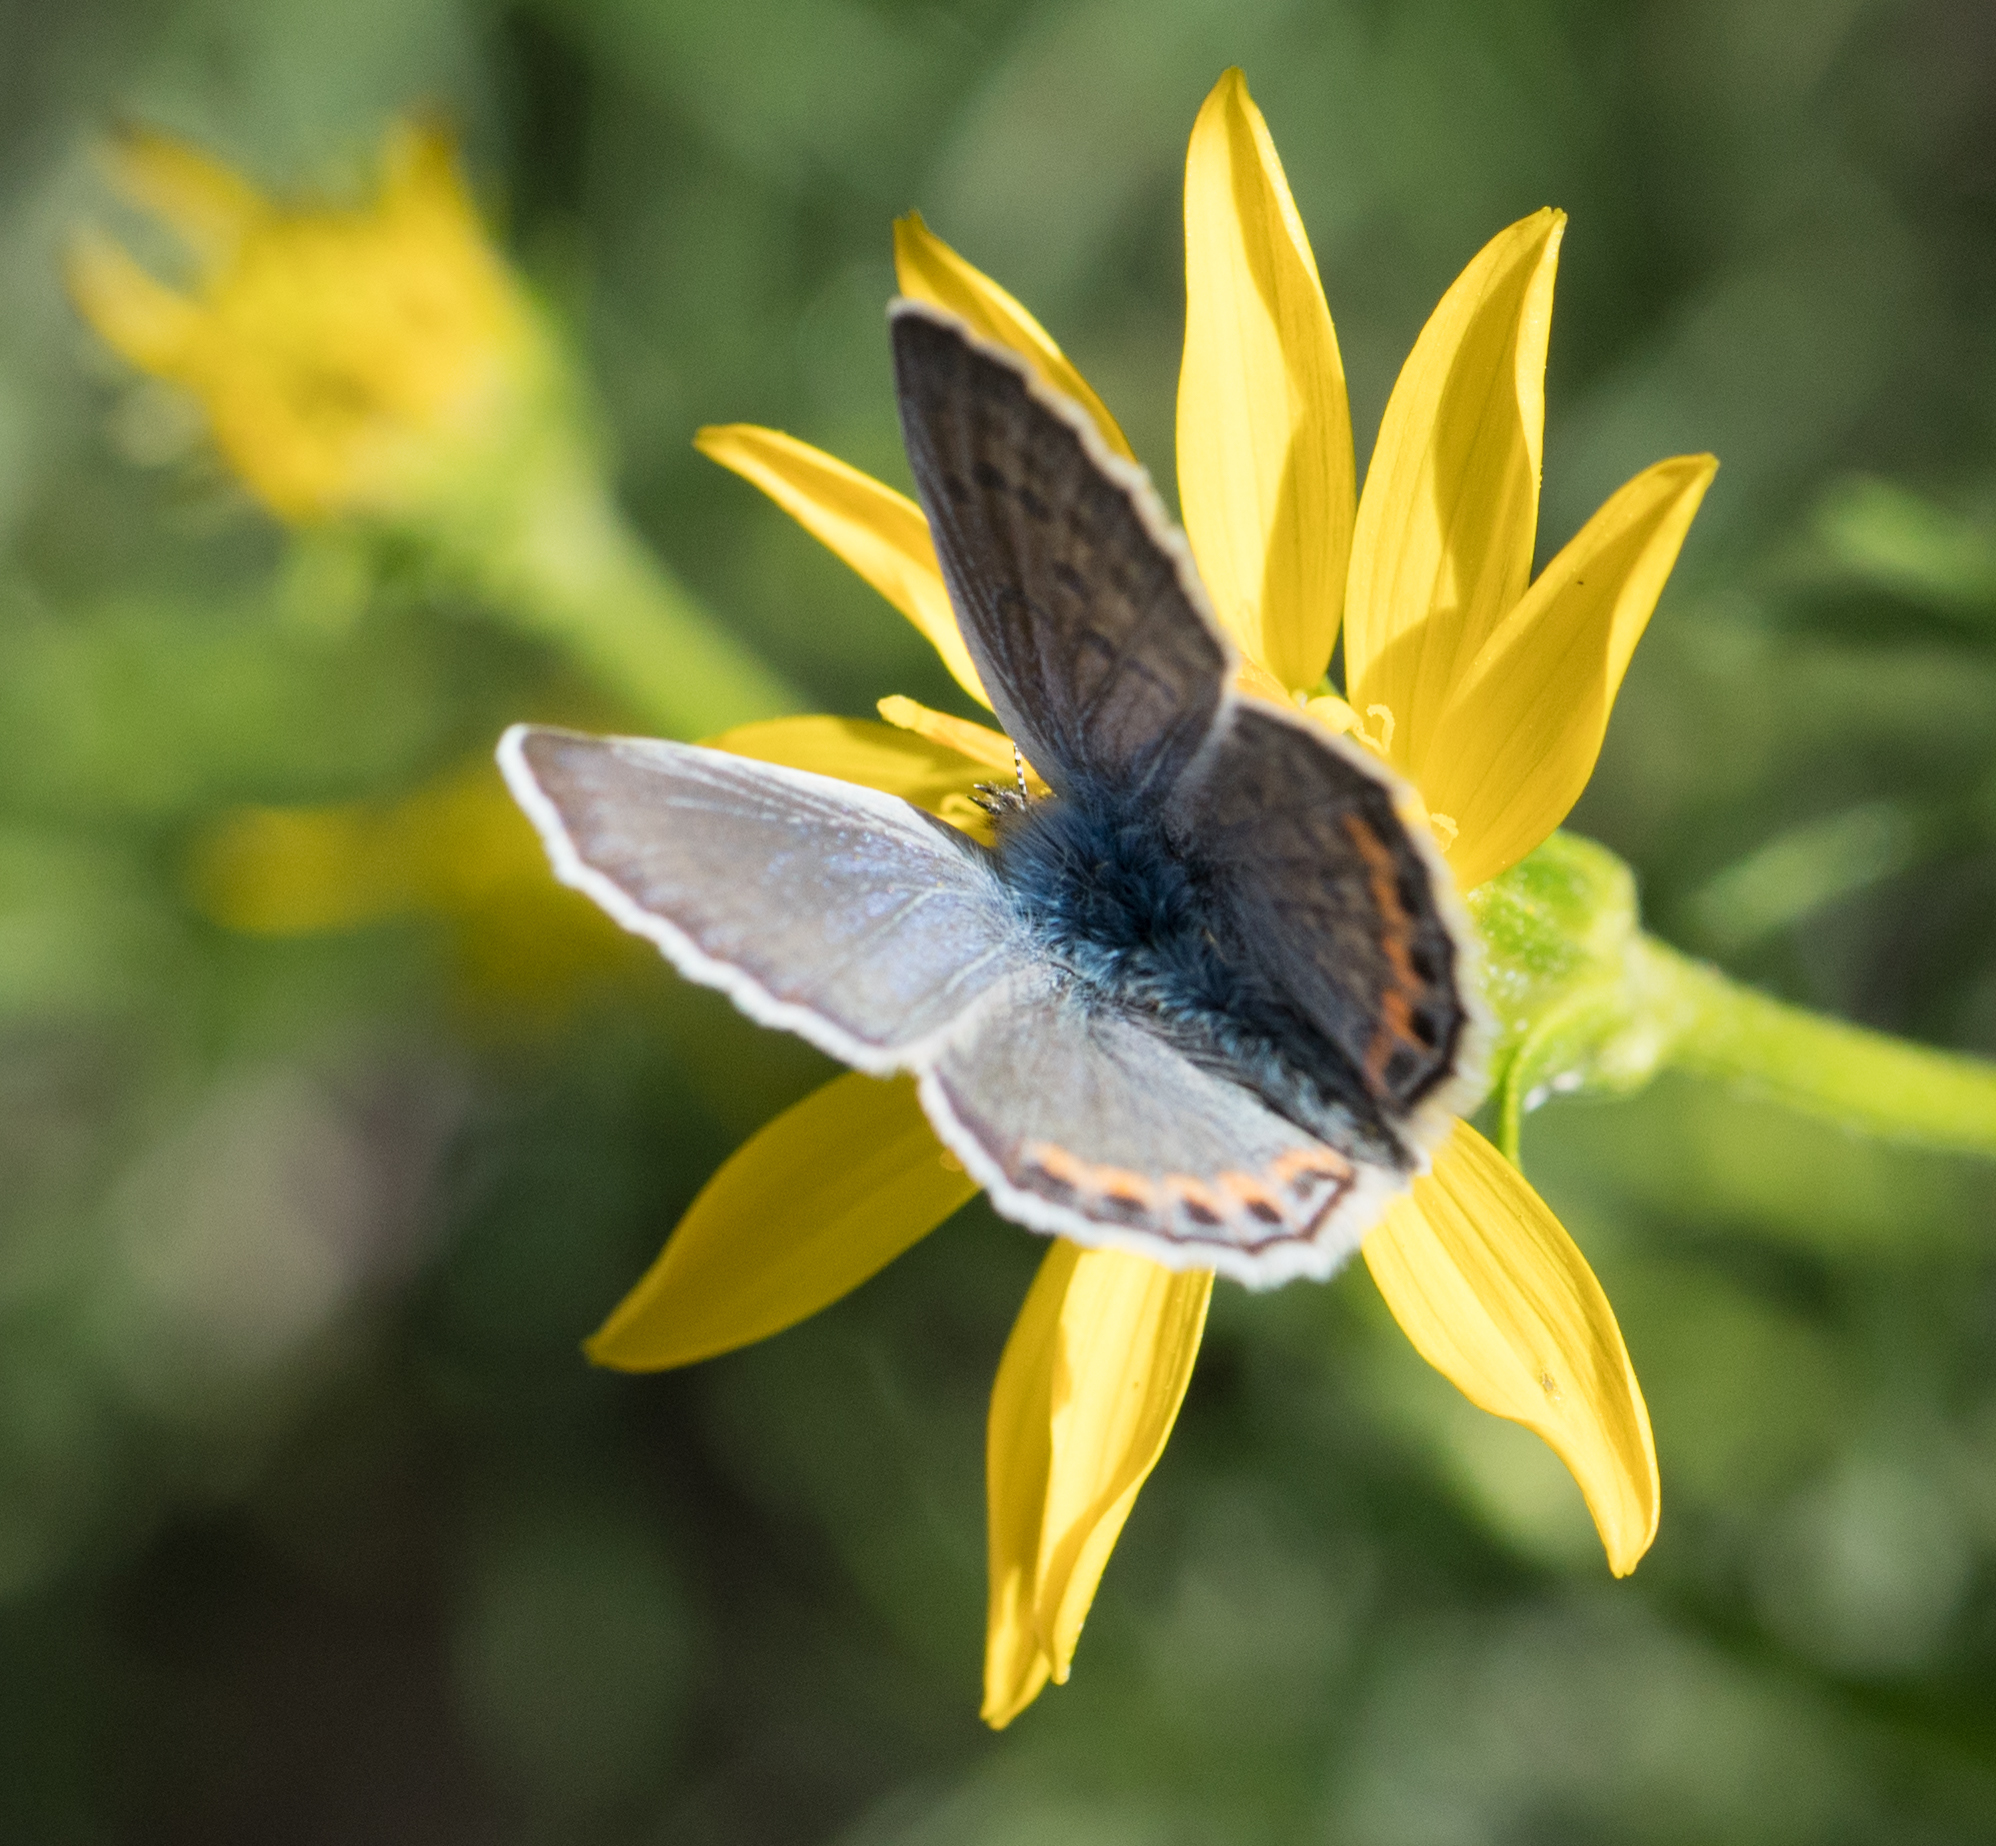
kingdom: Animalia
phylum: Arthropoda
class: Insecta
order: Lepidoptera
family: Lycaenidae
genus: Icaricia
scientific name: Icaricia acmon
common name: Acmon blue
